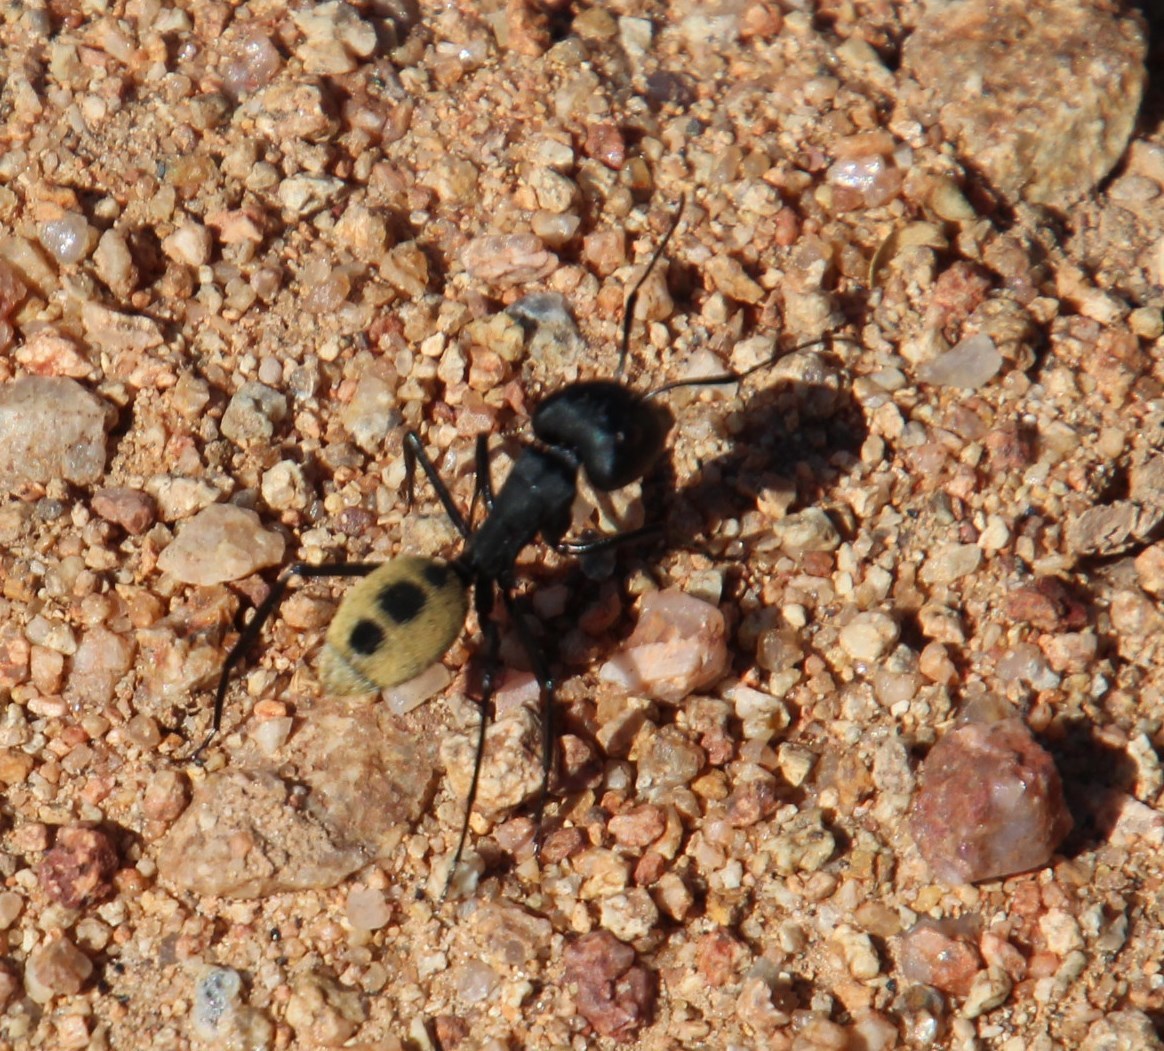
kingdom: Animalia
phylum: Arthropoda
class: Insecta
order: Hymenoptera
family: Formicidae
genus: Camponotus
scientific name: Camponotus fulvopilosus
